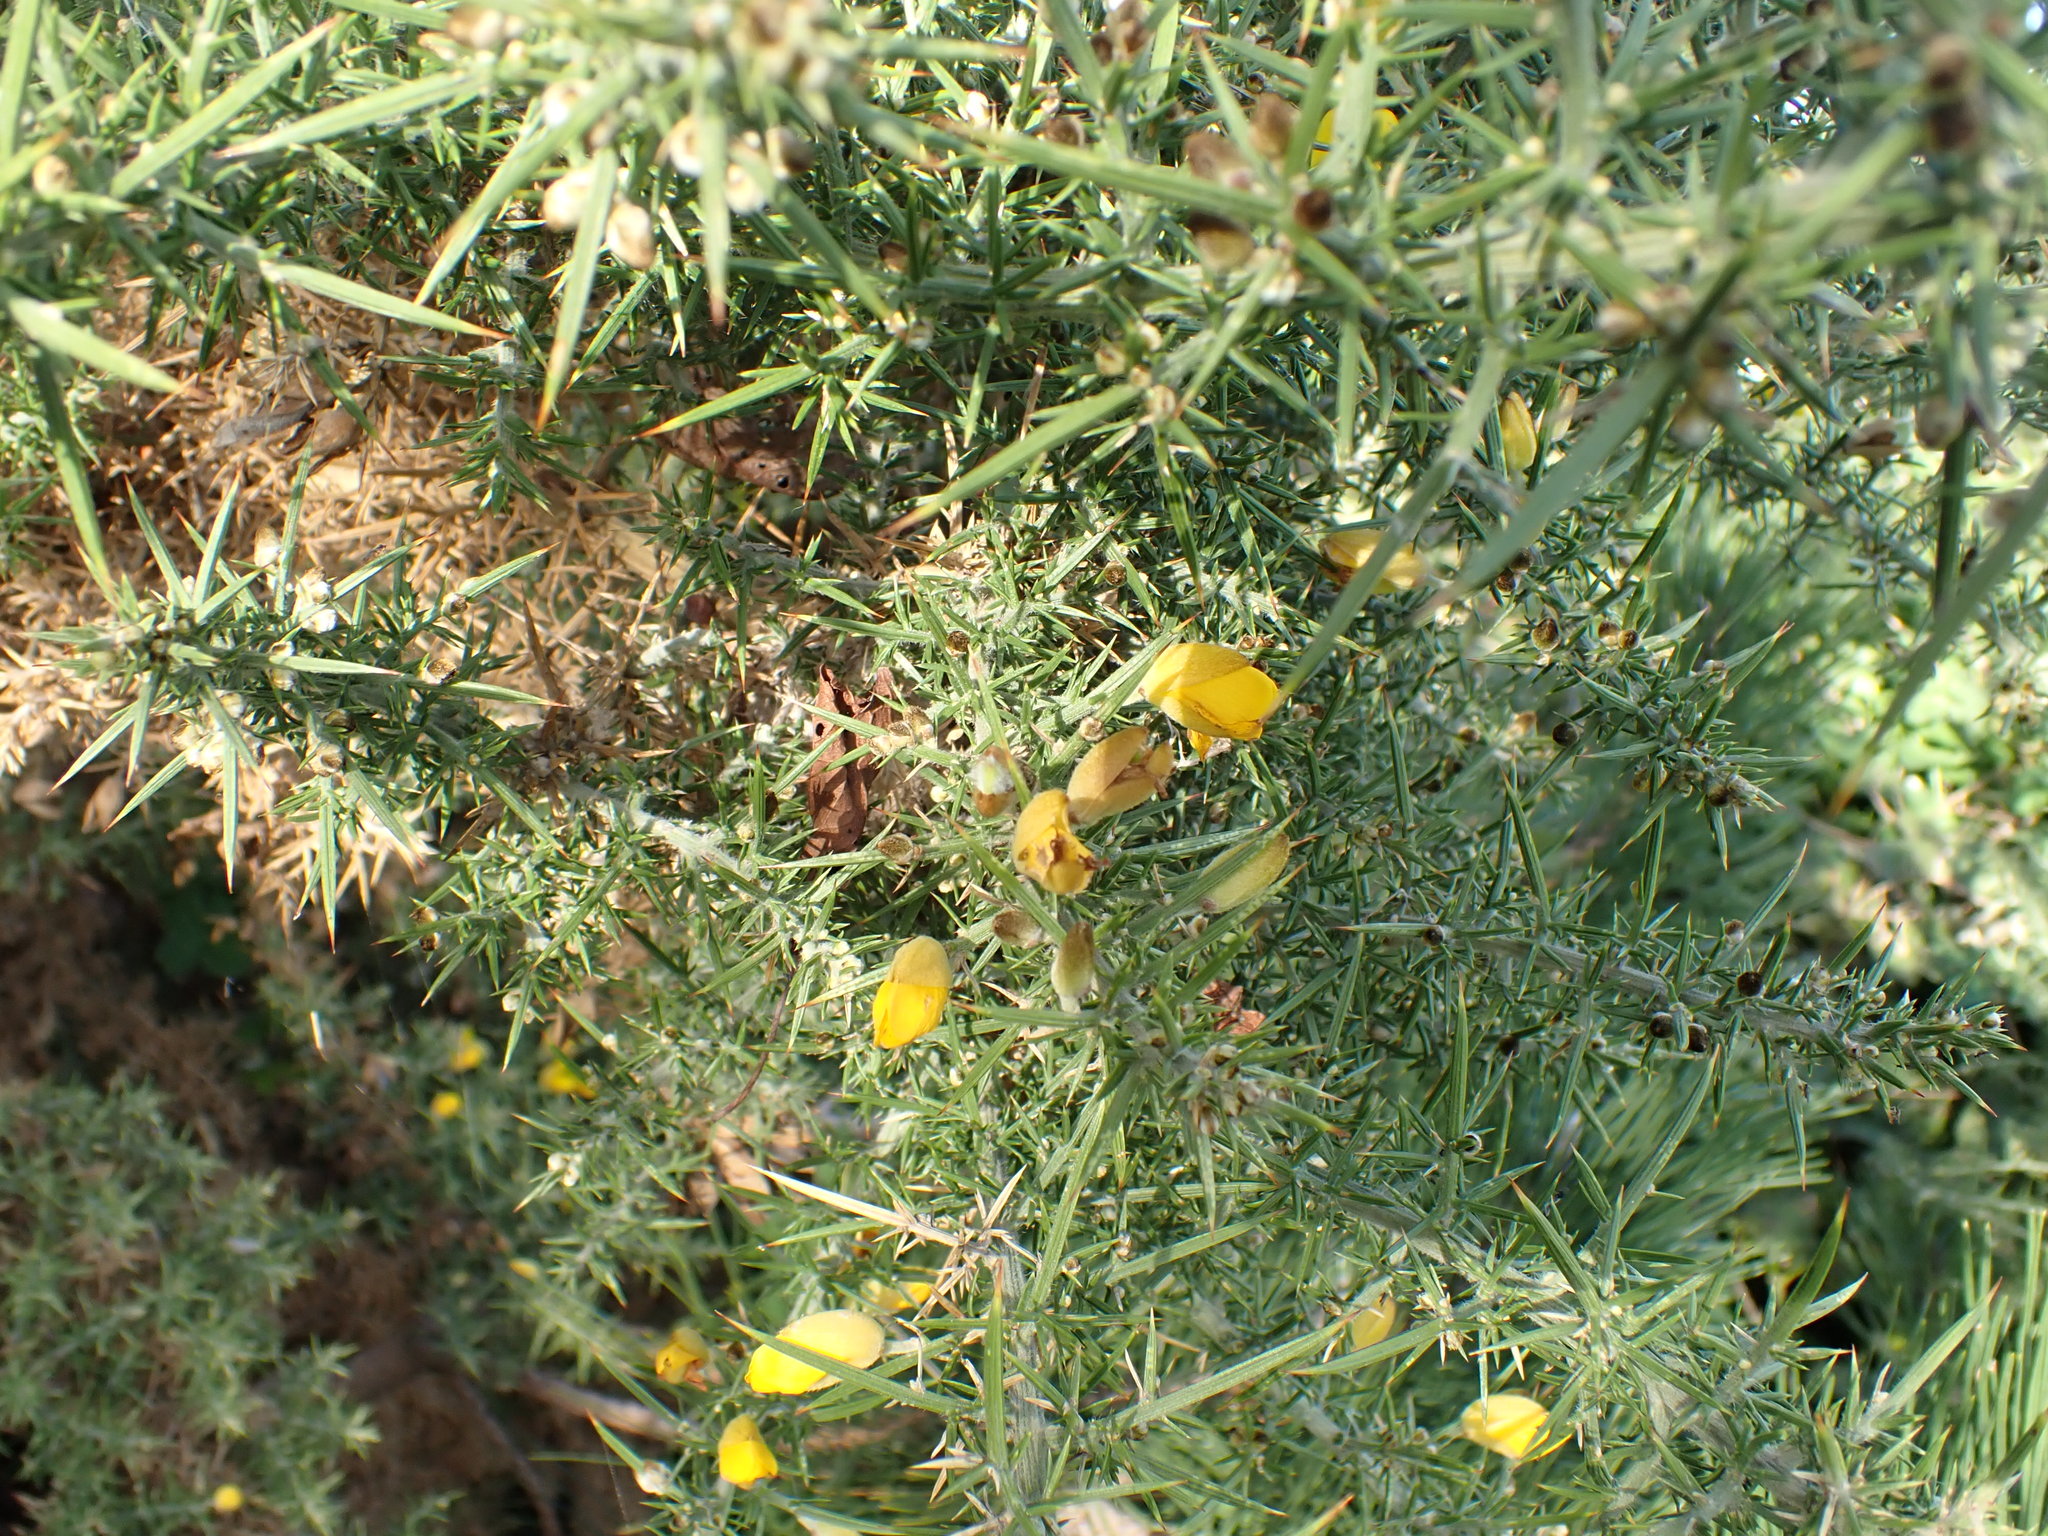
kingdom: Plantae
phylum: Tracheophyta
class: Magnoliopsida
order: Fabales
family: Fabaceae
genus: Ulex
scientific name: Ulex europaeus
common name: Common gorse
